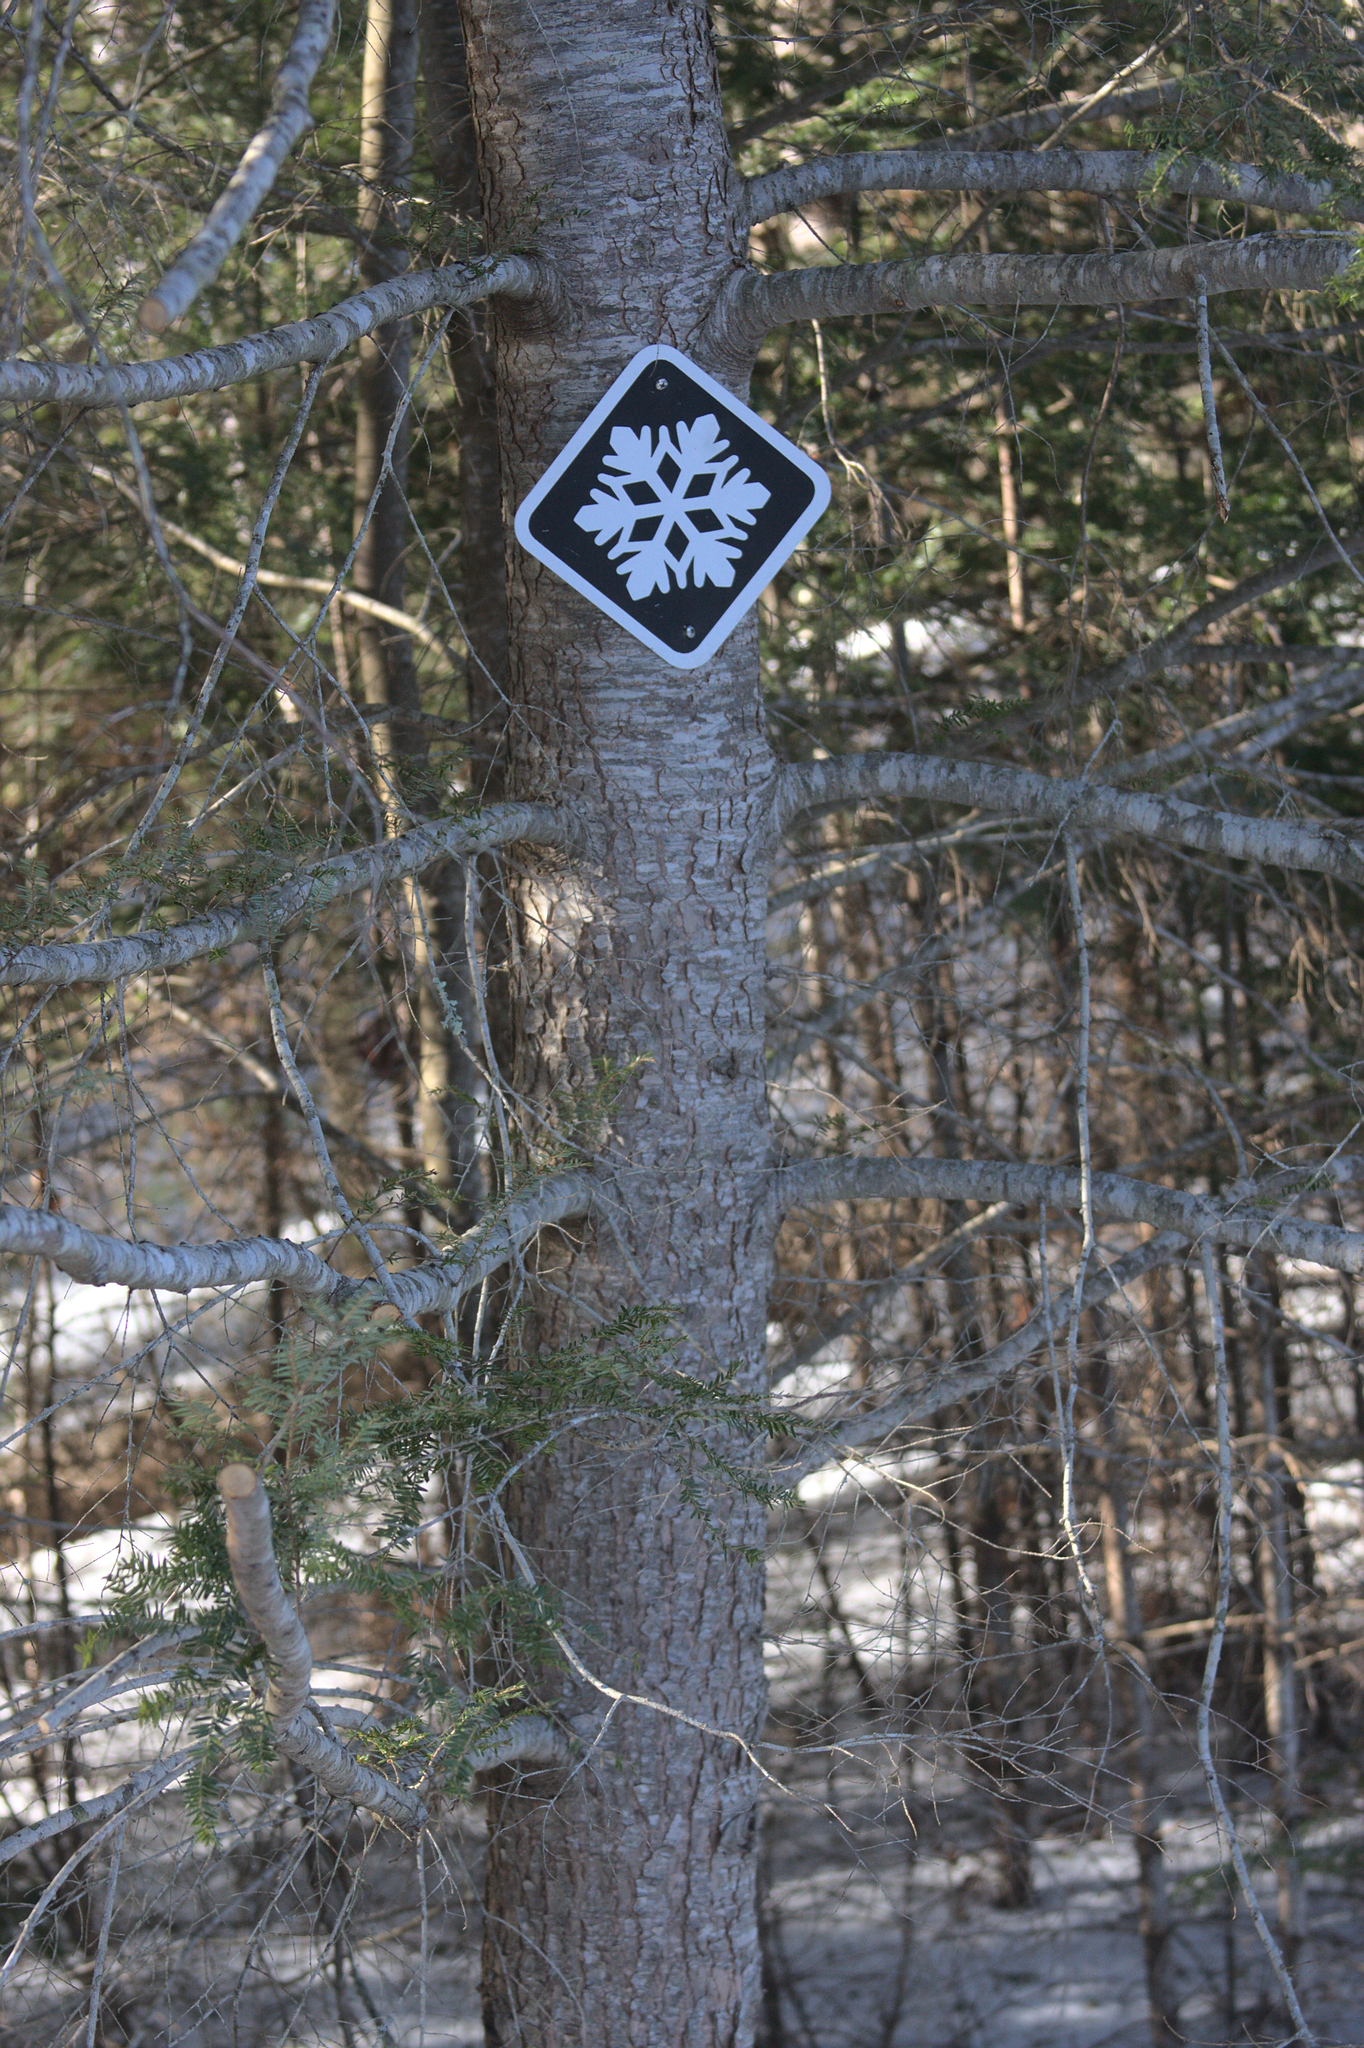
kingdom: Plantae
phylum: Tracheophyta
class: Pinopsida
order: Pinales
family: Pinaceae
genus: Tsuga
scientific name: Tsuga canadensis
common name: Eastern hemlock
